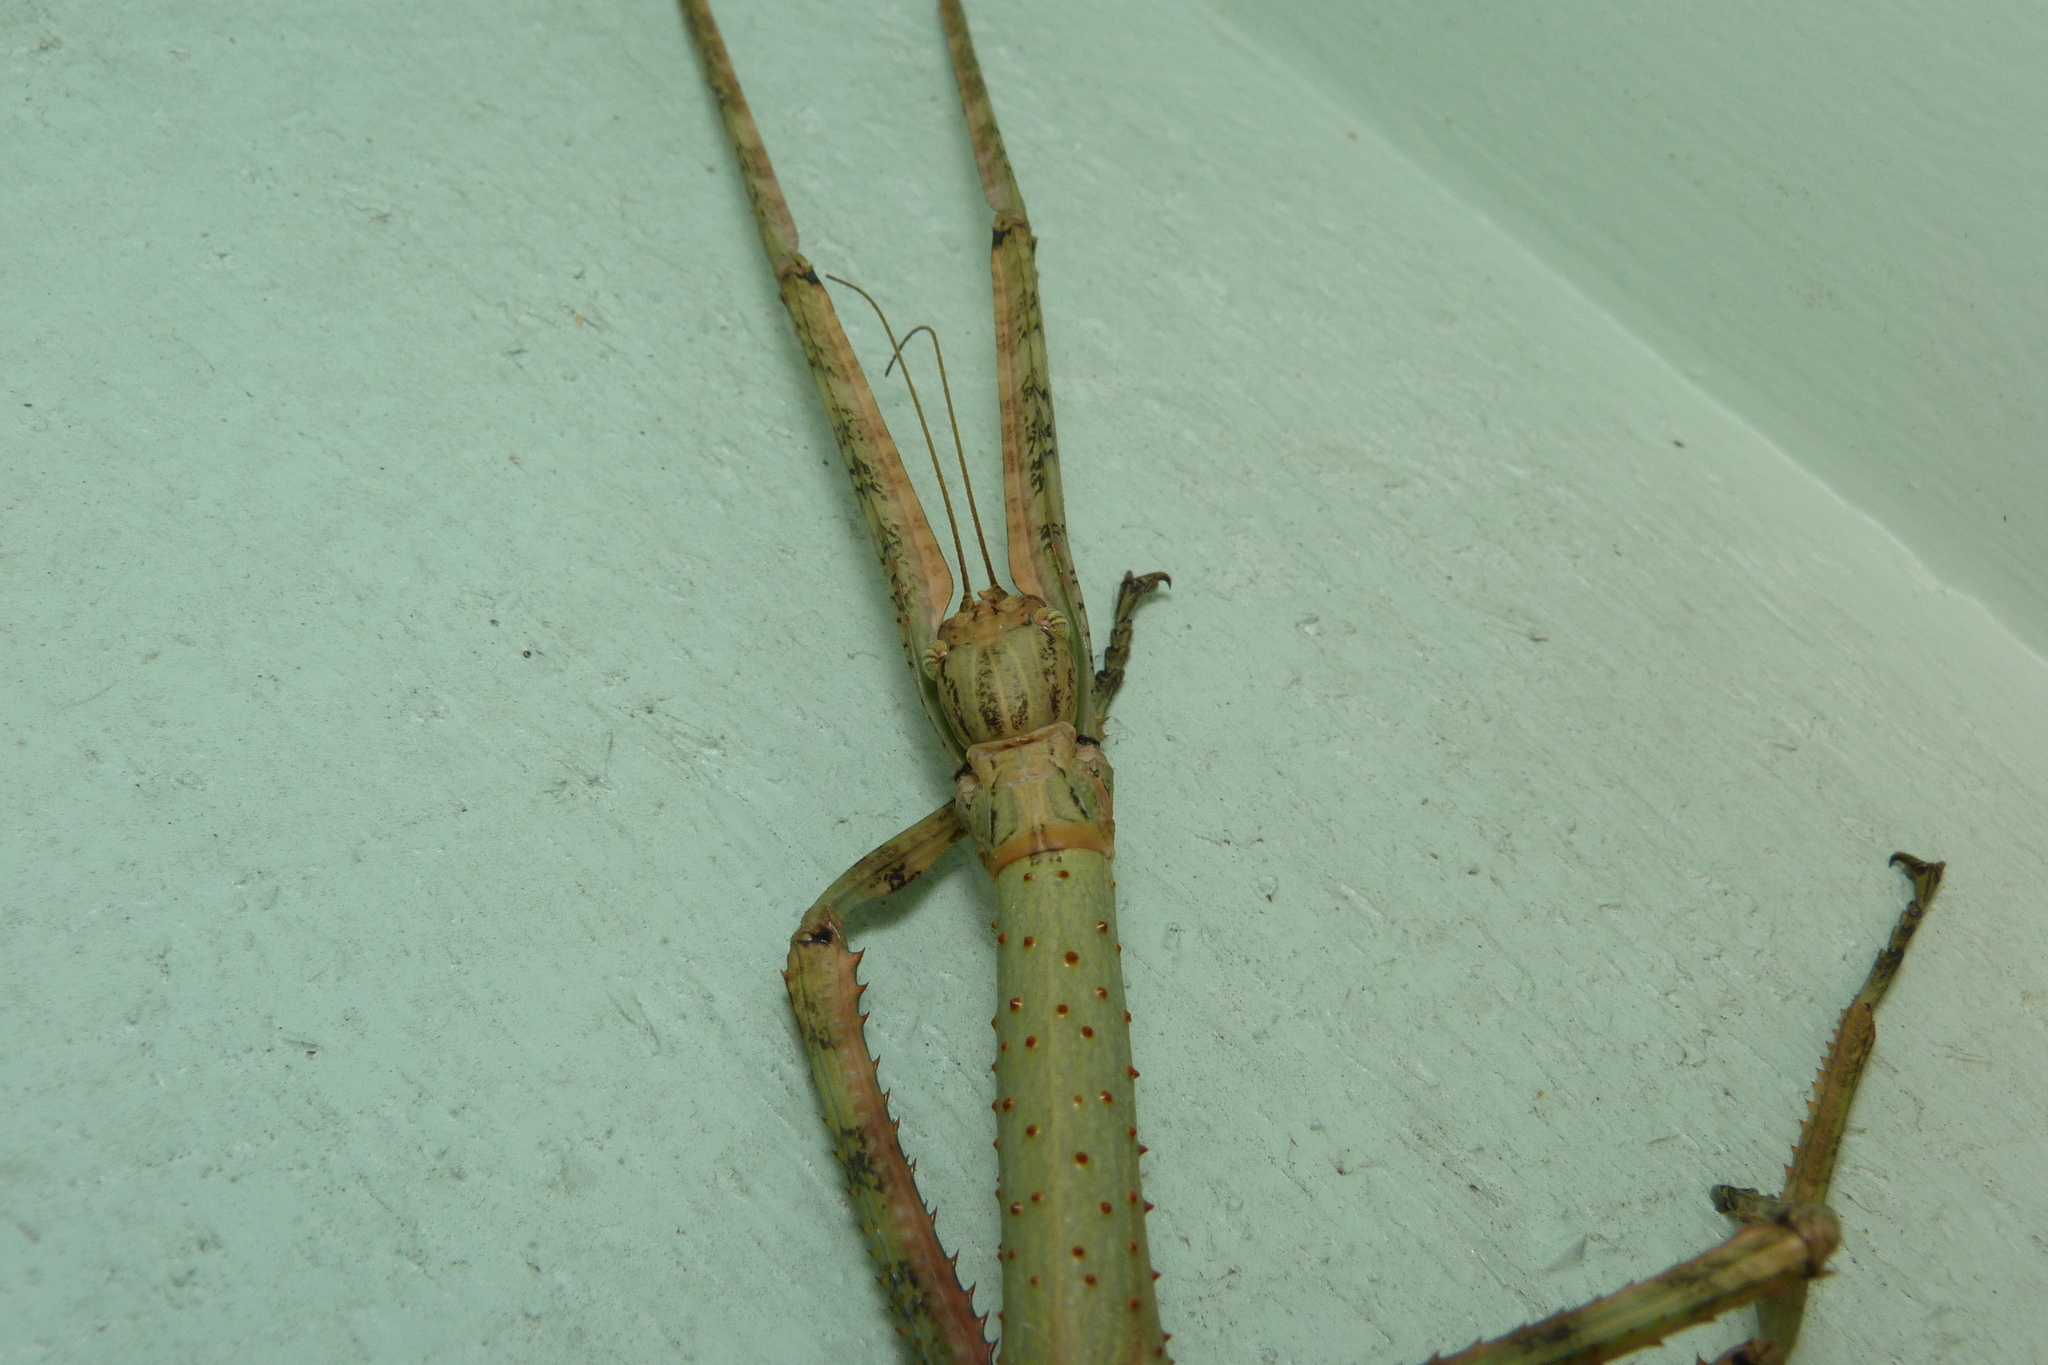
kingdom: Animalia
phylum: Arthropoda
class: Insecta
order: Phasmida
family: Phasmatidae
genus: Anchiale
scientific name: Anchiale briareus
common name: Strong stick insect
